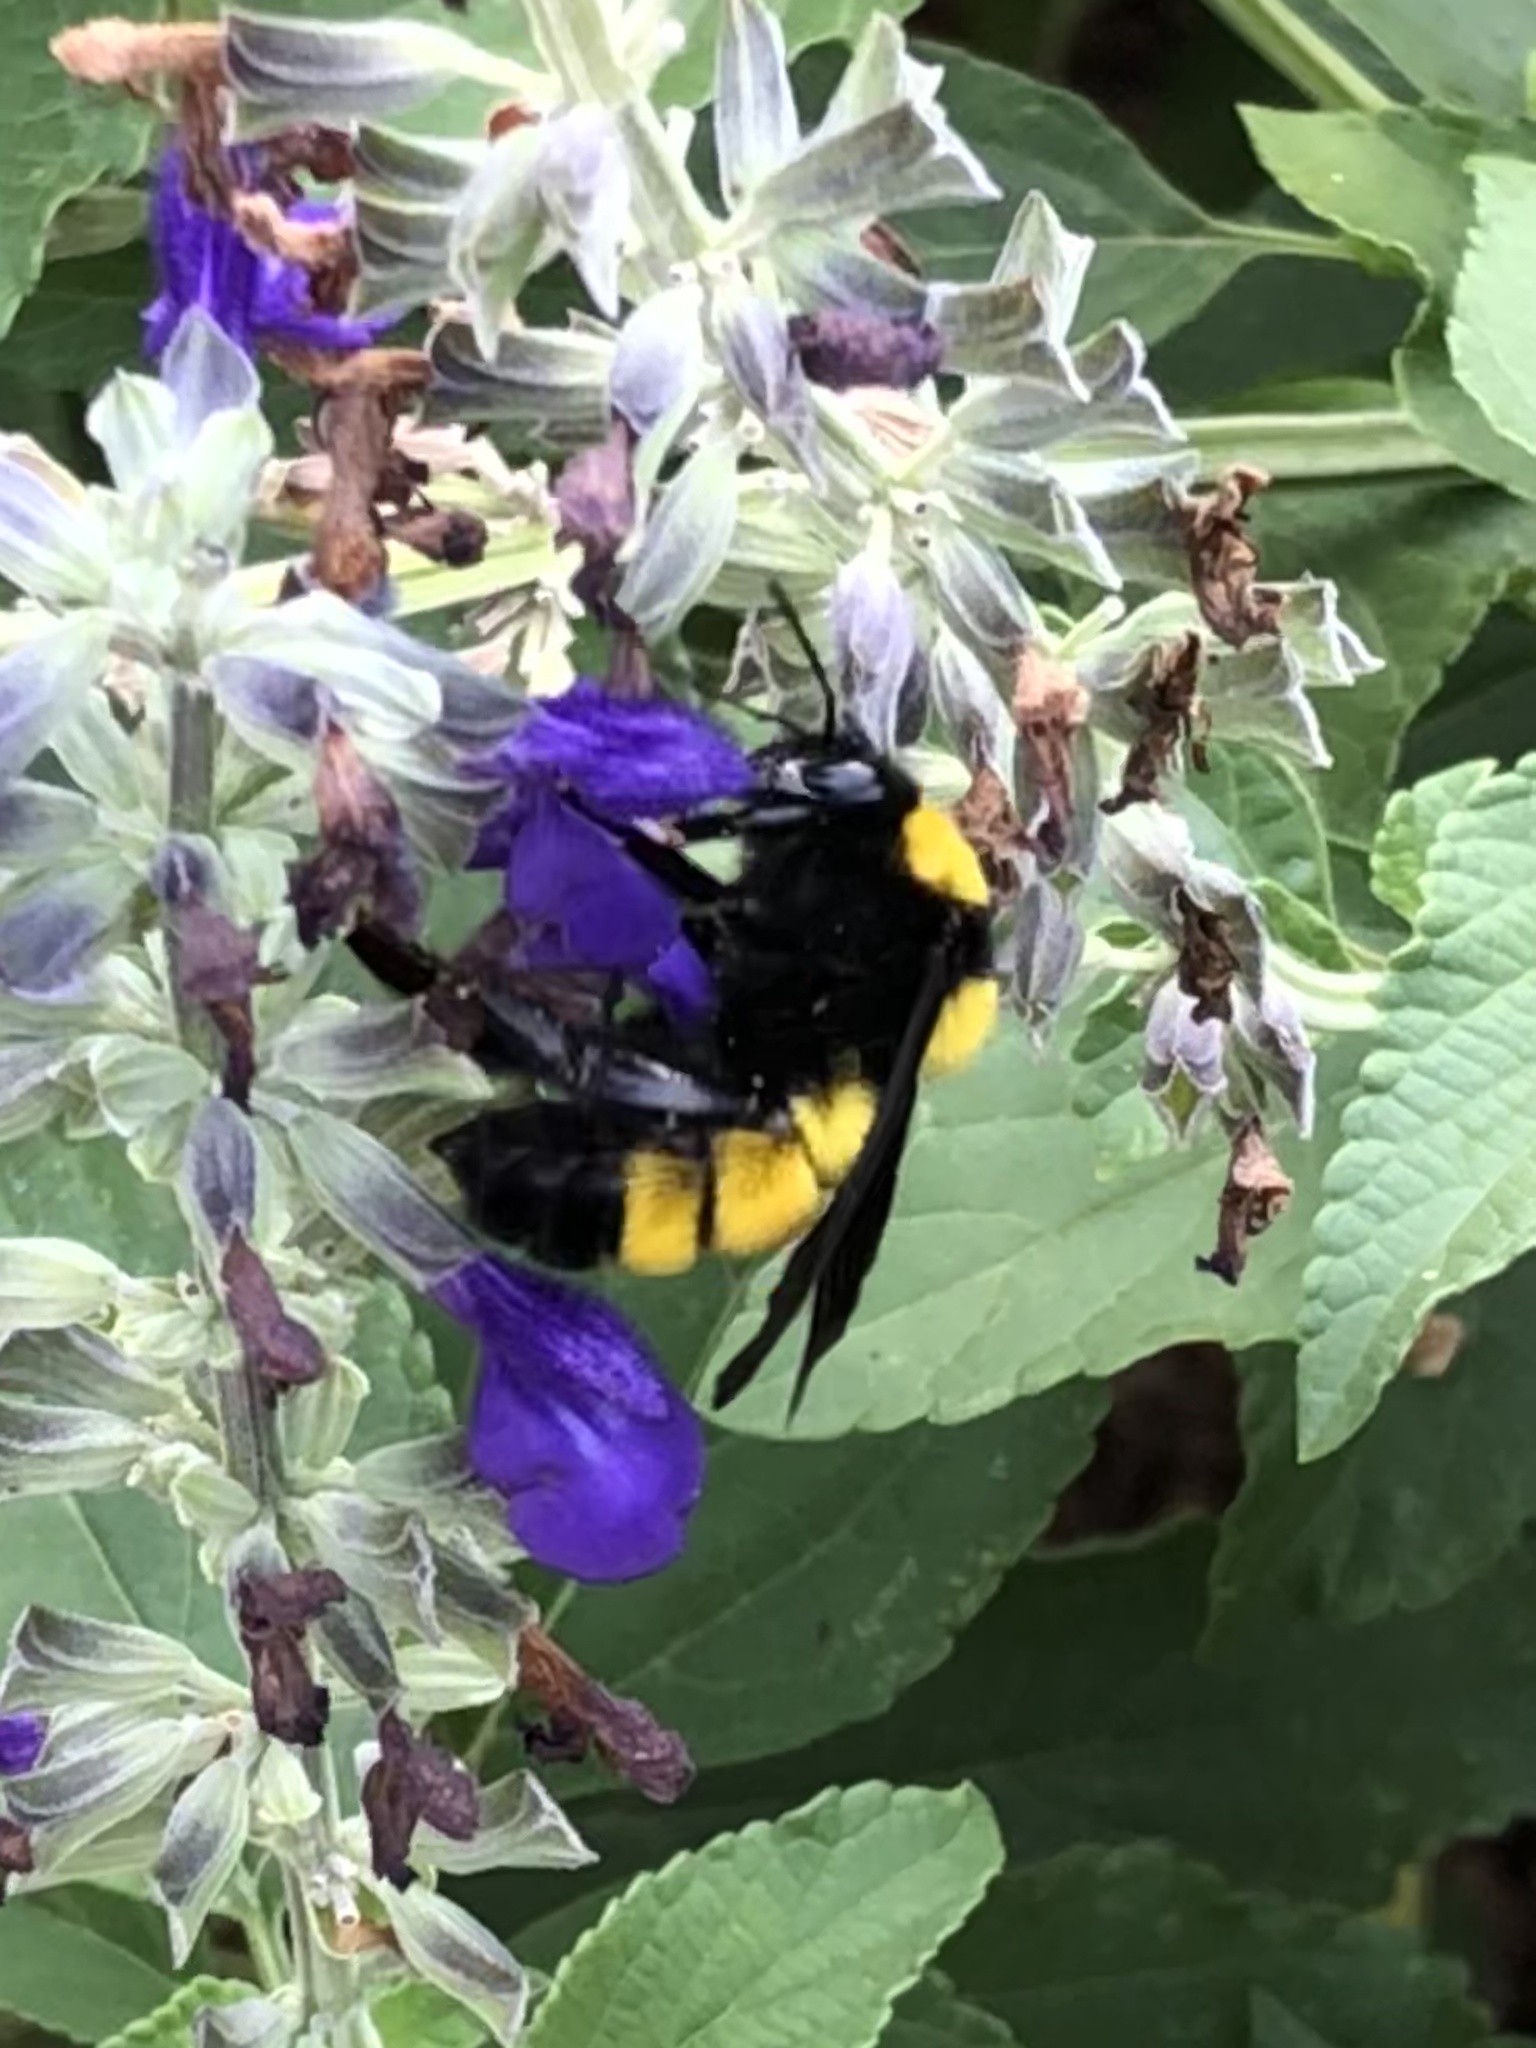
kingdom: Animalia
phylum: Arthropoda
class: Insecta
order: Hymenoptera
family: Apidae
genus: Bombus
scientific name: Bombus sonorus
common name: Sonoran bumble bee
